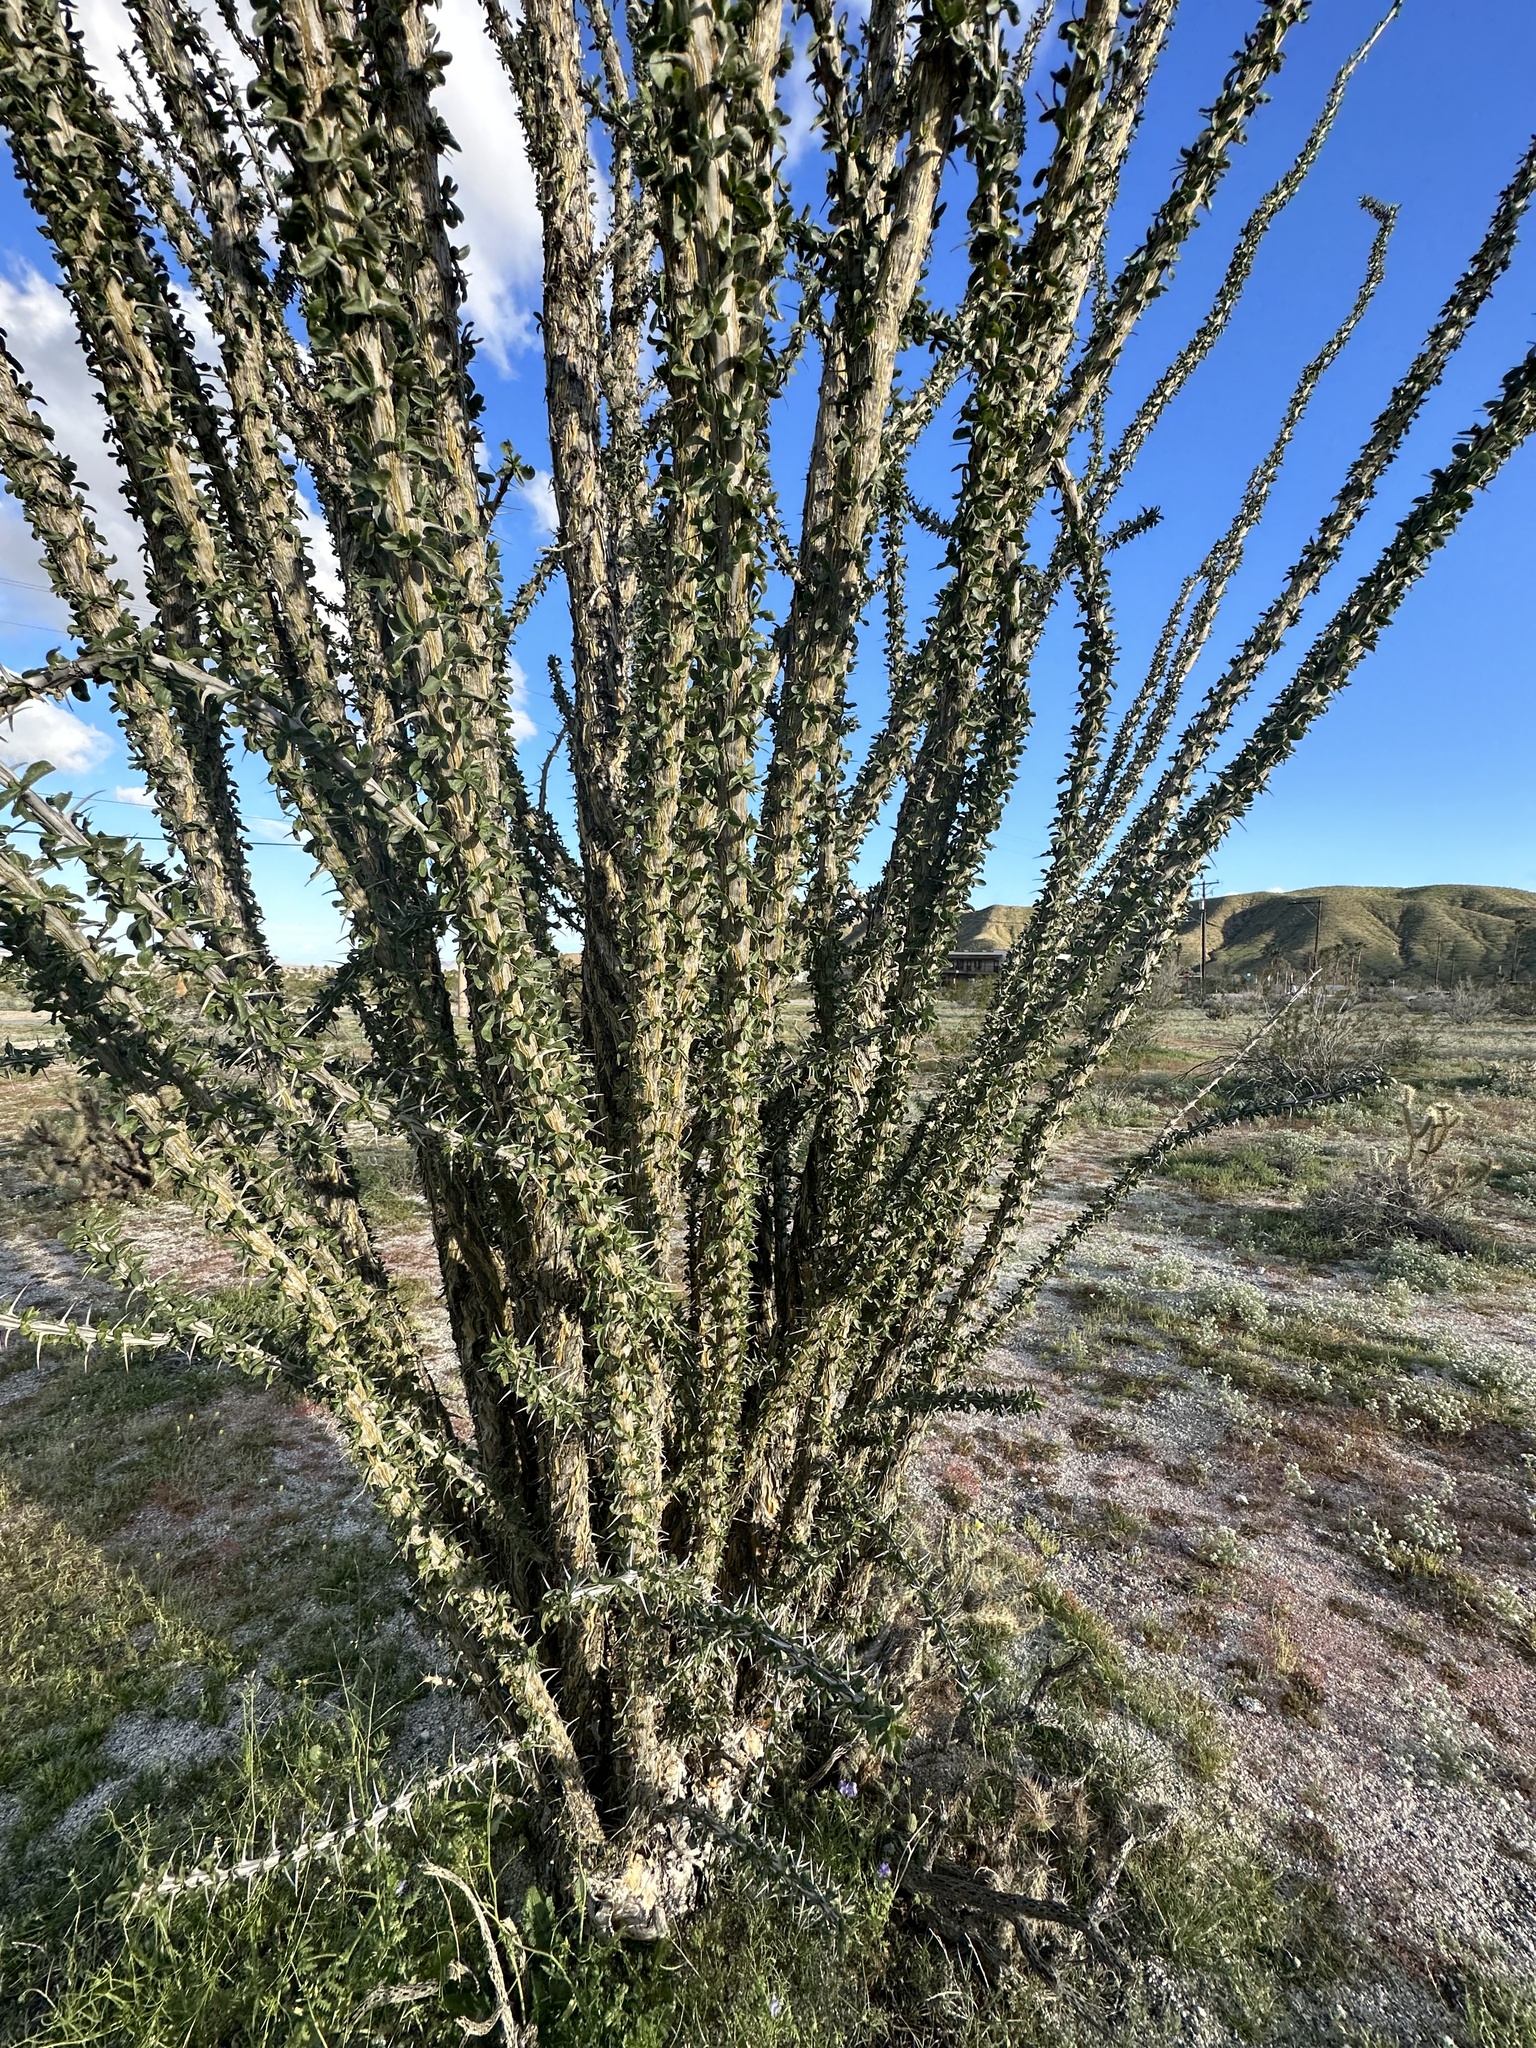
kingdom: Plantae
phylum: Tracheophyta
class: Magnoliopsida
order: Ericales
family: Fouquieriaceae
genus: Fouquieria
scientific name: Fouquieria splendens
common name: Vine-cactus
